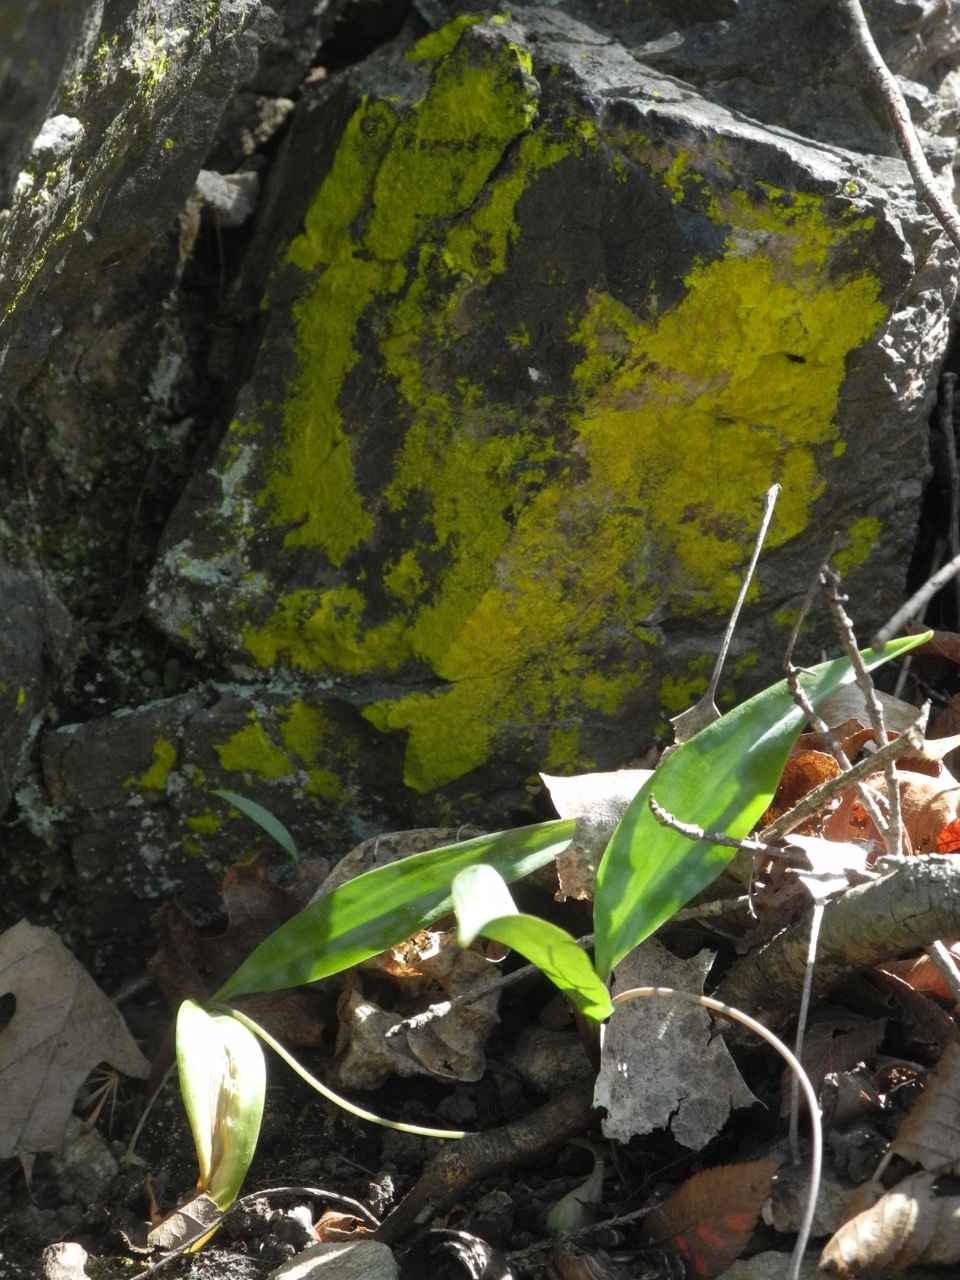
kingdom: Fungi
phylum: Ascomycota
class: Arthoniomycetes
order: Arthoniales
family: Chrysotrichaceae
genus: Chrysothrix
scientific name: Chrysothrix candelaris
